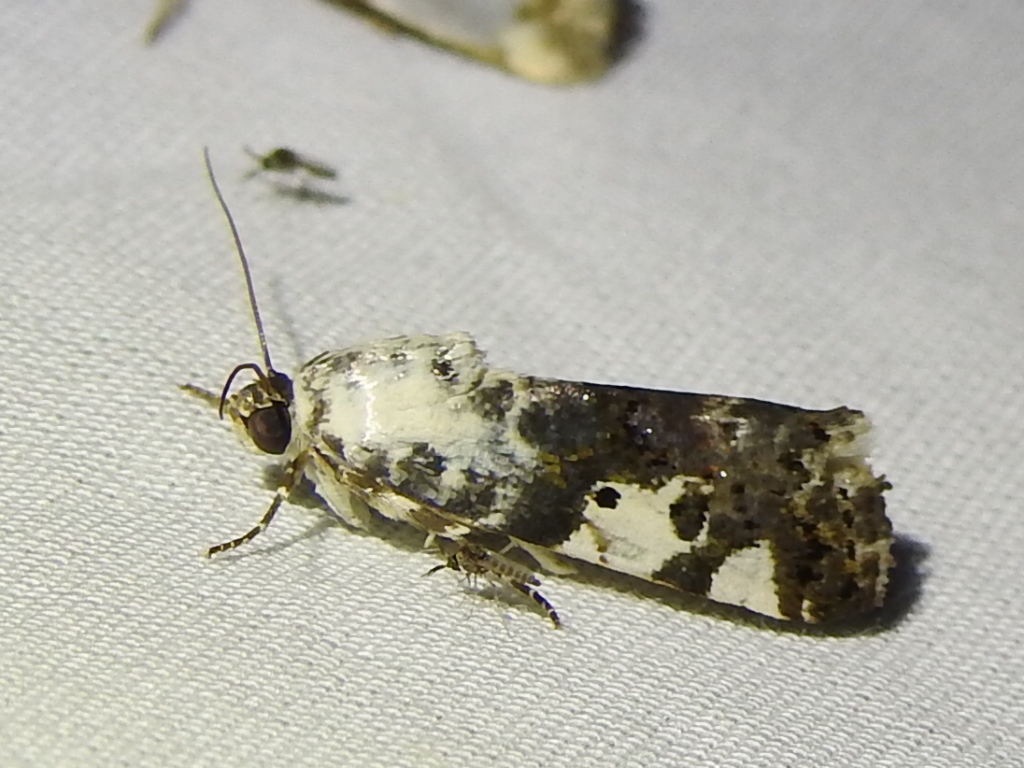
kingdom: Animalia
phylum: Arthropoda
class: Insecta
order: Lepidoptera
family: Noctuidae
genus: Acontia
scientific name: Acontia aprica
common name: Nun
